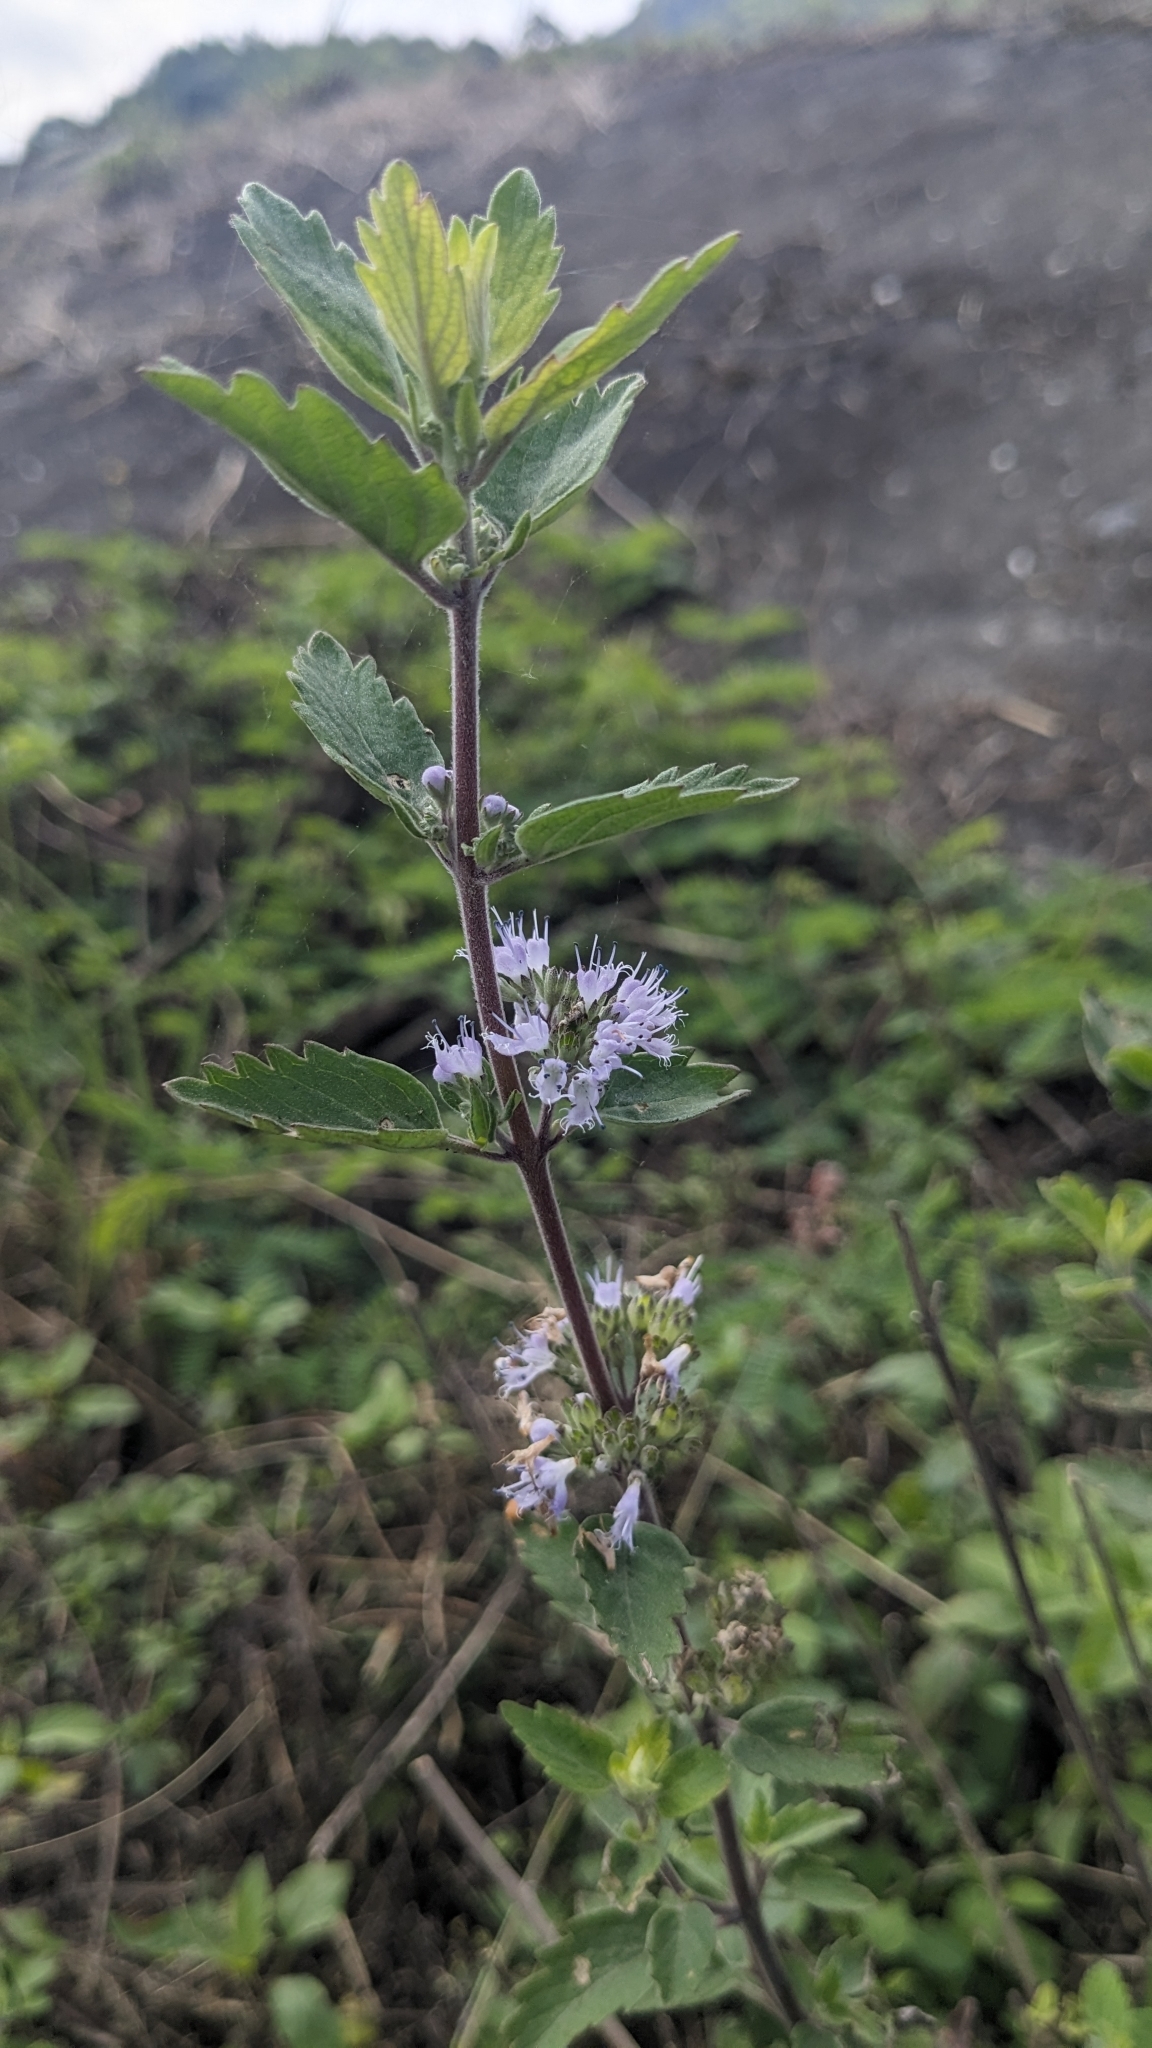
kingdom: Plantae
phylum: Tracheophyta
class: Magnoliopsida
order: Lamiales
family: Lamiaceae
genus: Caryopteris
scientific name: Caryopteris incana
